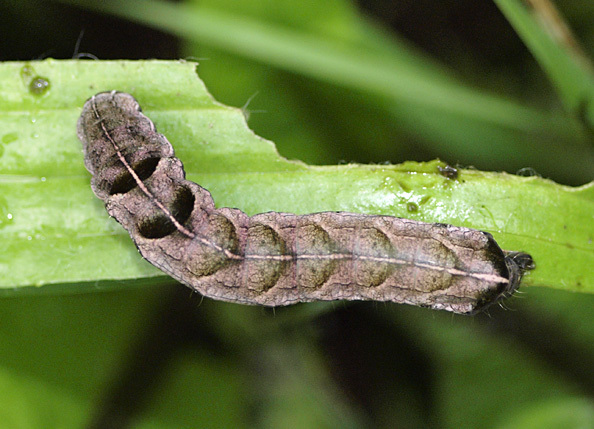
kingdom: Animalia
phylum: Arthropoda
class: Insecta
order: Lepidoptera
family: Noctuidae
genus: Melanchra
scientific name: Melanchra persicariae
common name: Dot moth
